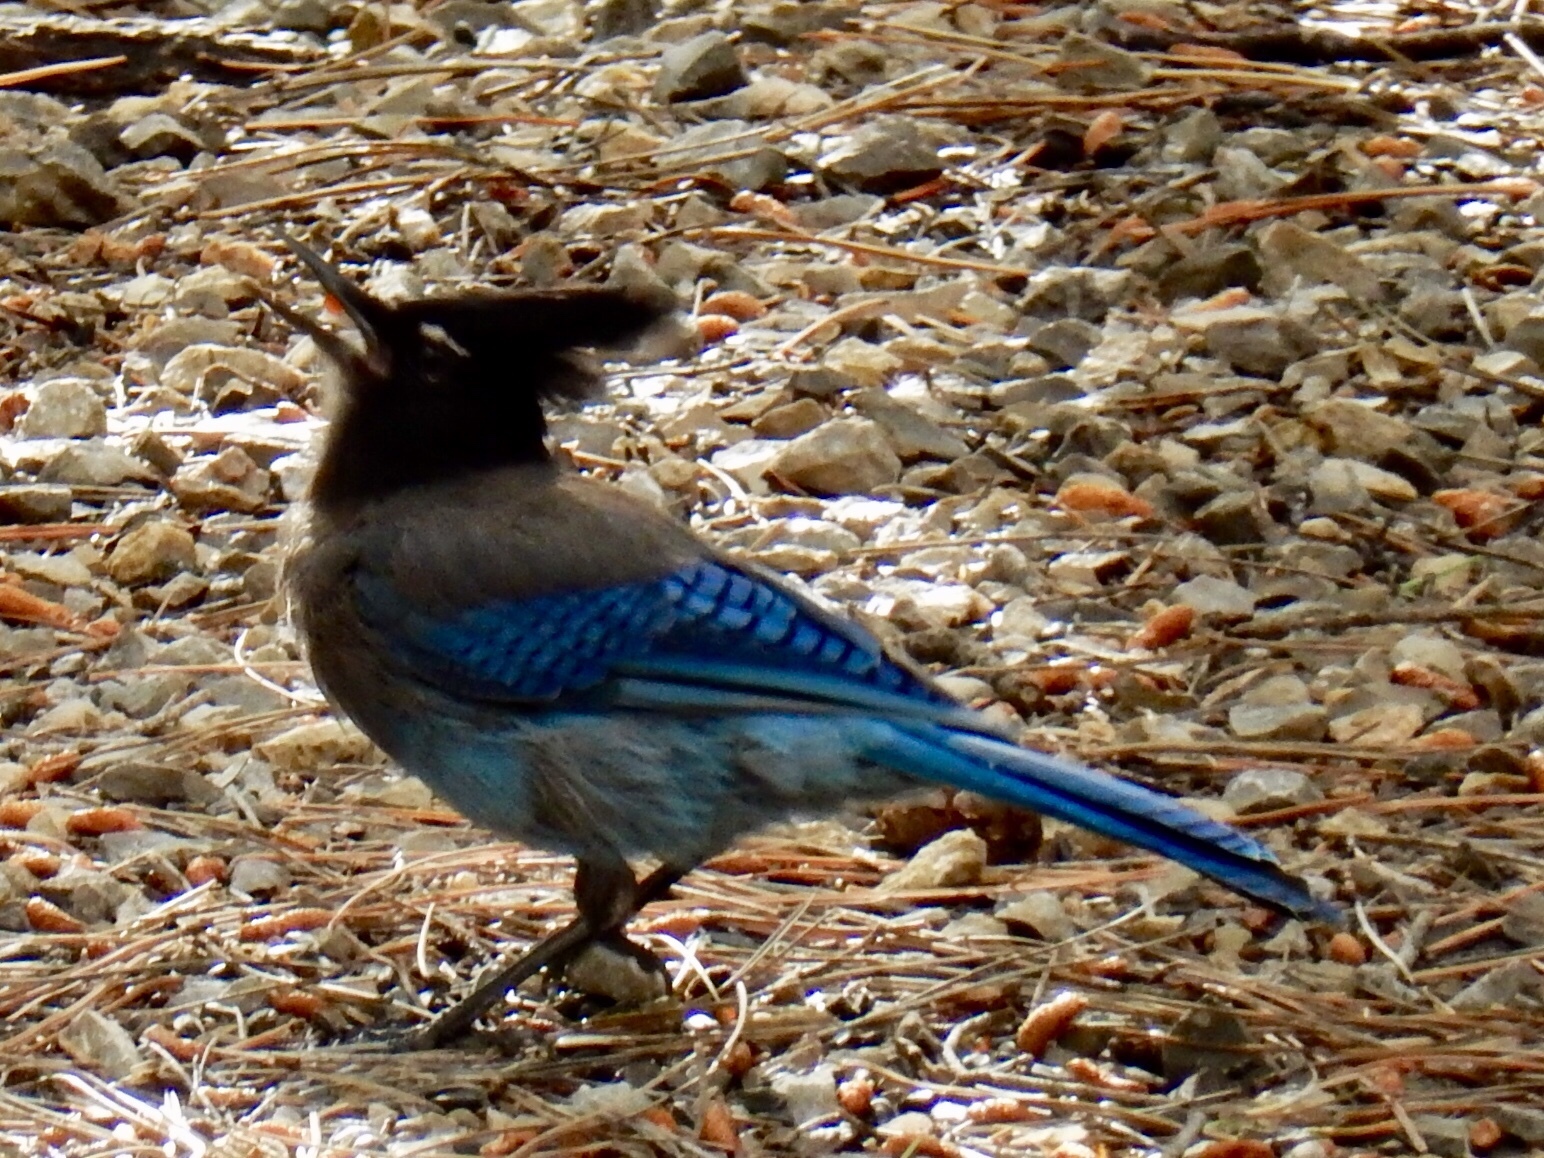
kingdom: Animalia
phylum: Chordata
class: Aves
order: Passeriformes
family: Corvidae
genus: Cyanocitta
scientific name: Cyanocitta stelleri
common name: Steller's jay
